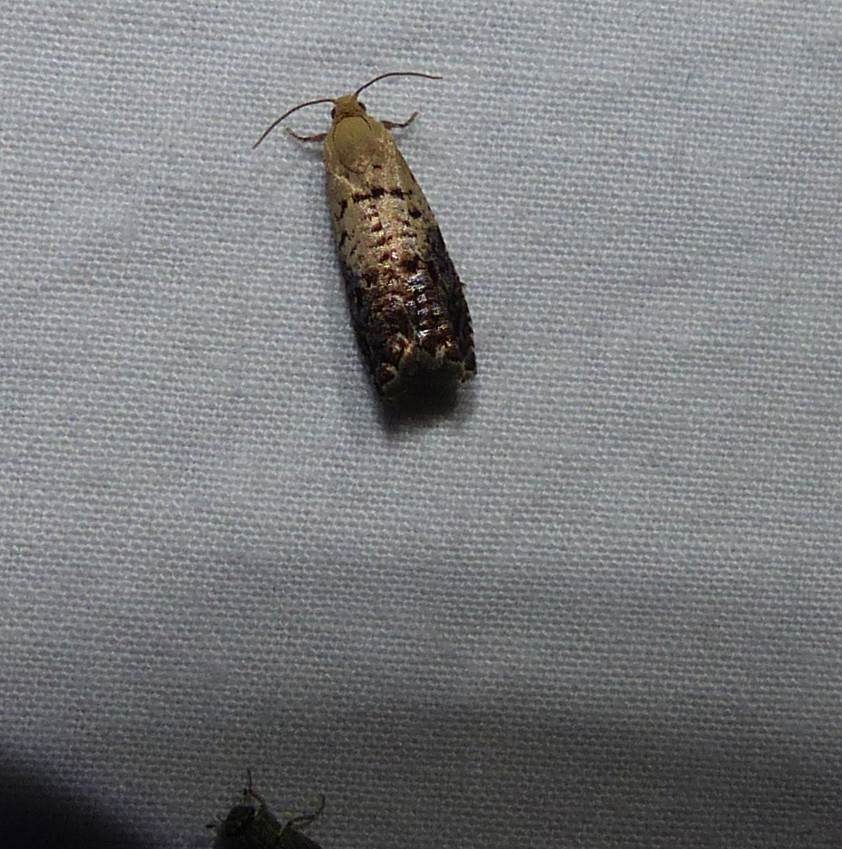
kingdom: Animalia
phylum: Arthropoda
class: Insecta
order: Lepidoptera
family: Tortricidae
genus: Cydia
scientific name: Cydia fletcherana
